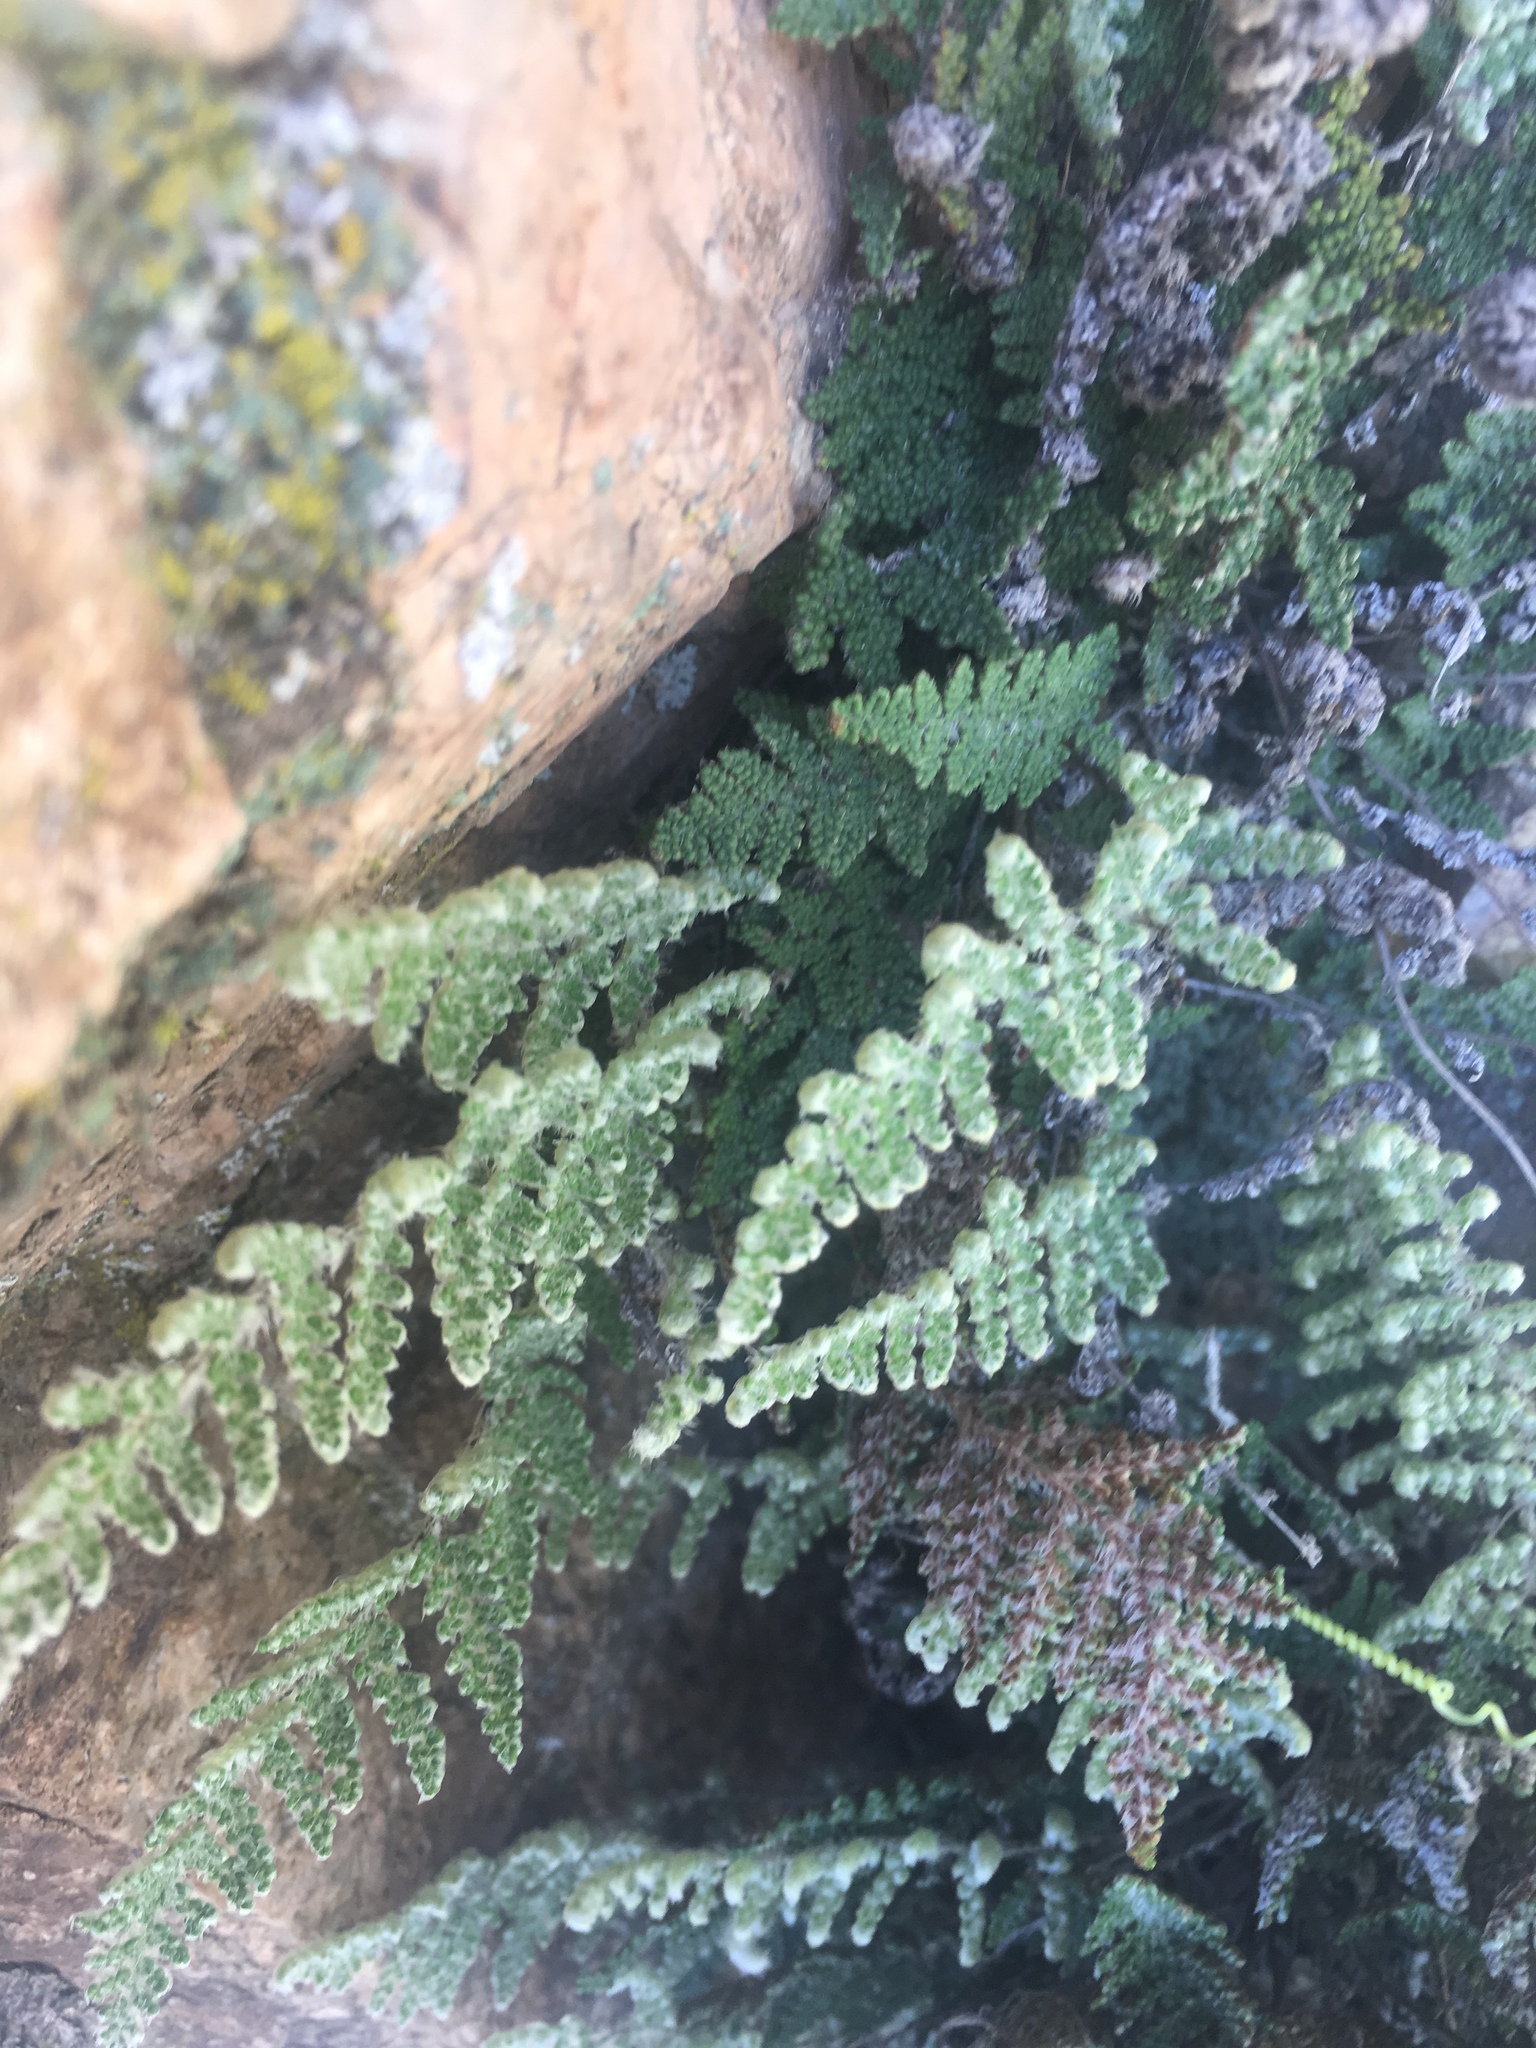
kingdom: Plantae
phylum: Tracheophyta
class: Polypodiopsida
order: Polypodiales
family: Pteridaceae
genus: Myriopteris
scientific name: Myriopteris covillei
